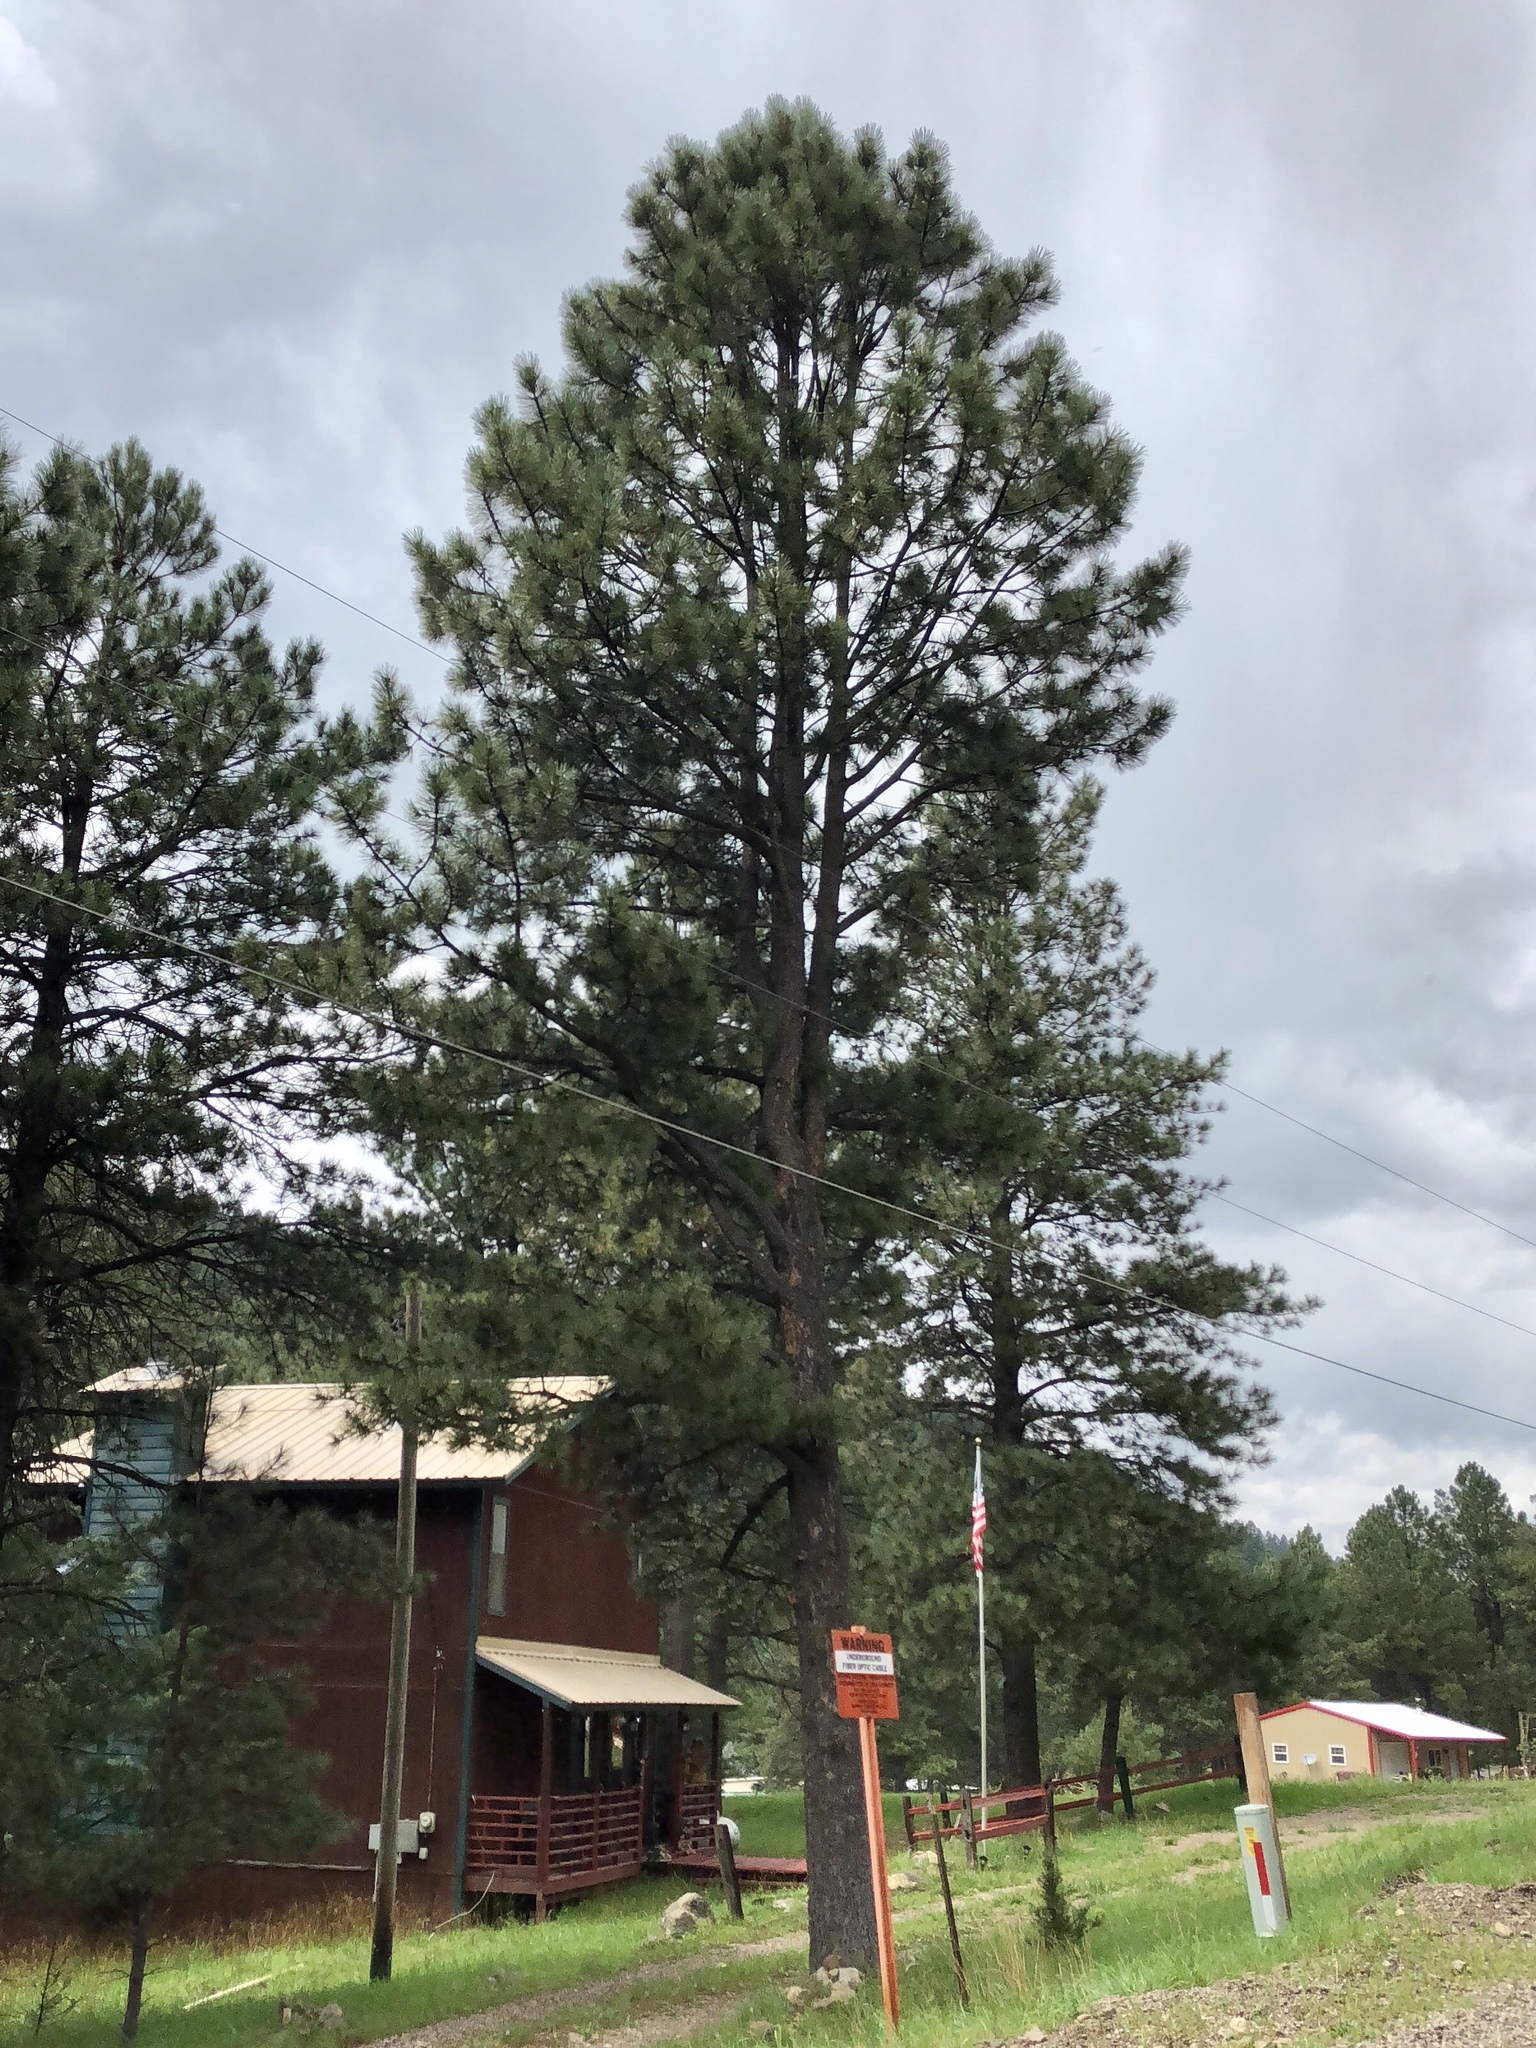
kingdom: Plantae
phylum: Tracheophyta
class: Pinopsida
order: Pinales
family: Pinaceae
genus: Pinus
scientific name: Pinus ponderosa
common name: Western yellow-pine
